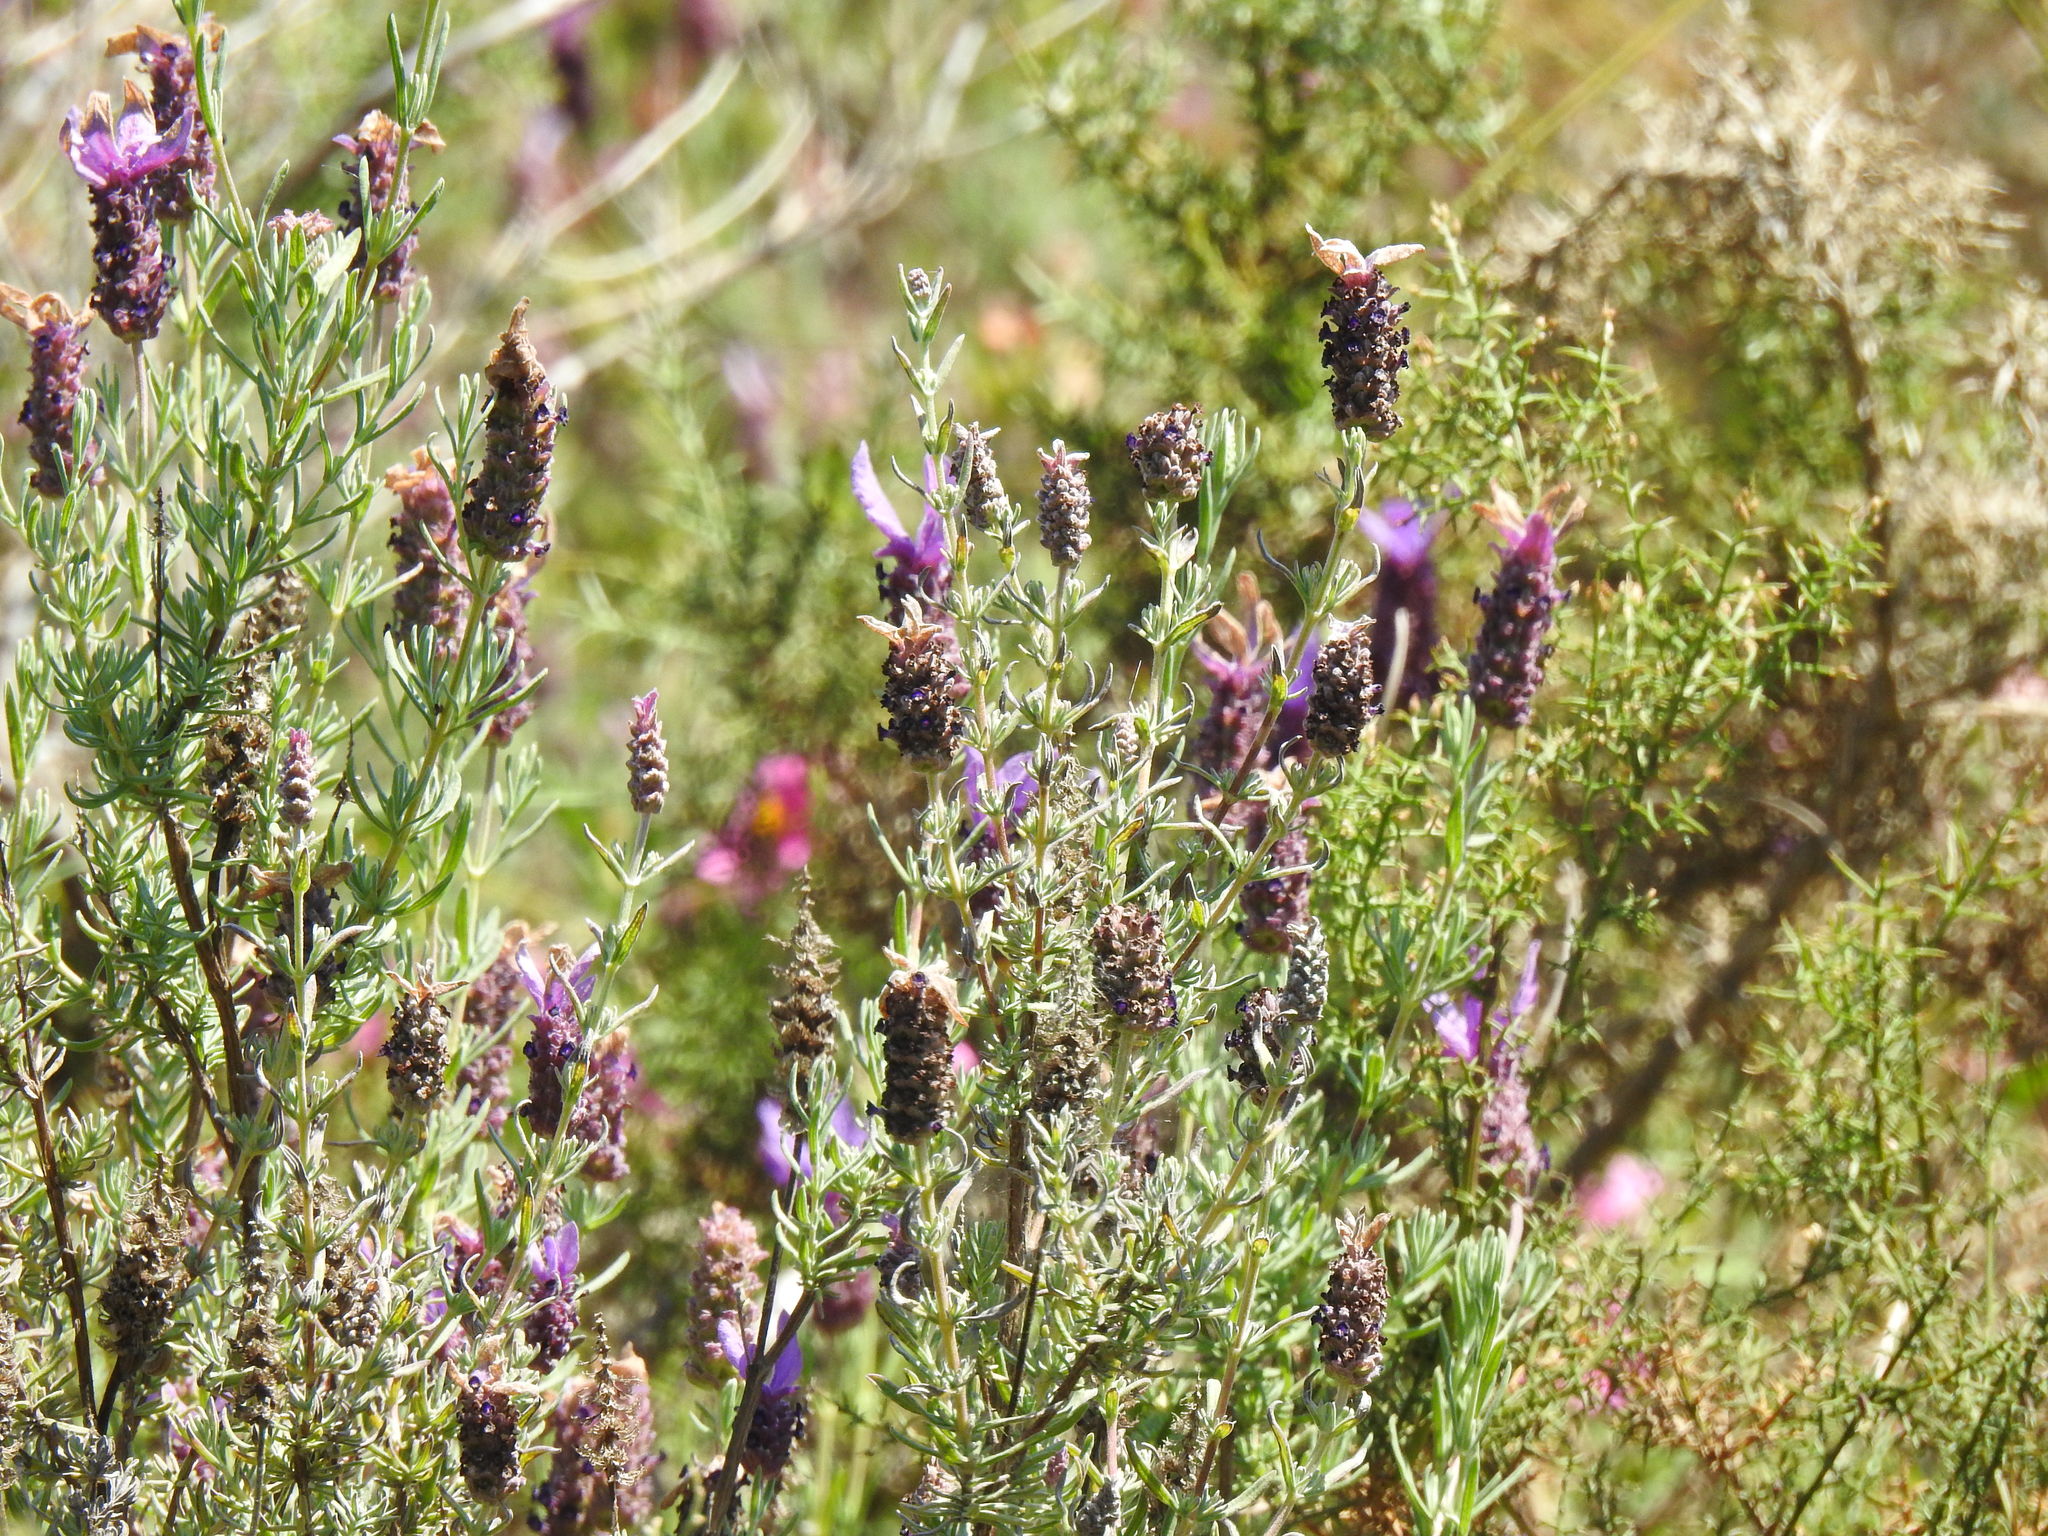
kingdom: Plantae
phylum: Tracheophyta
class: Magnoliopsida
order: Lamiales
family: Lamiaceae
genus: Lavandula
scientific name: Lavandula stoechas
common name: French lavender
